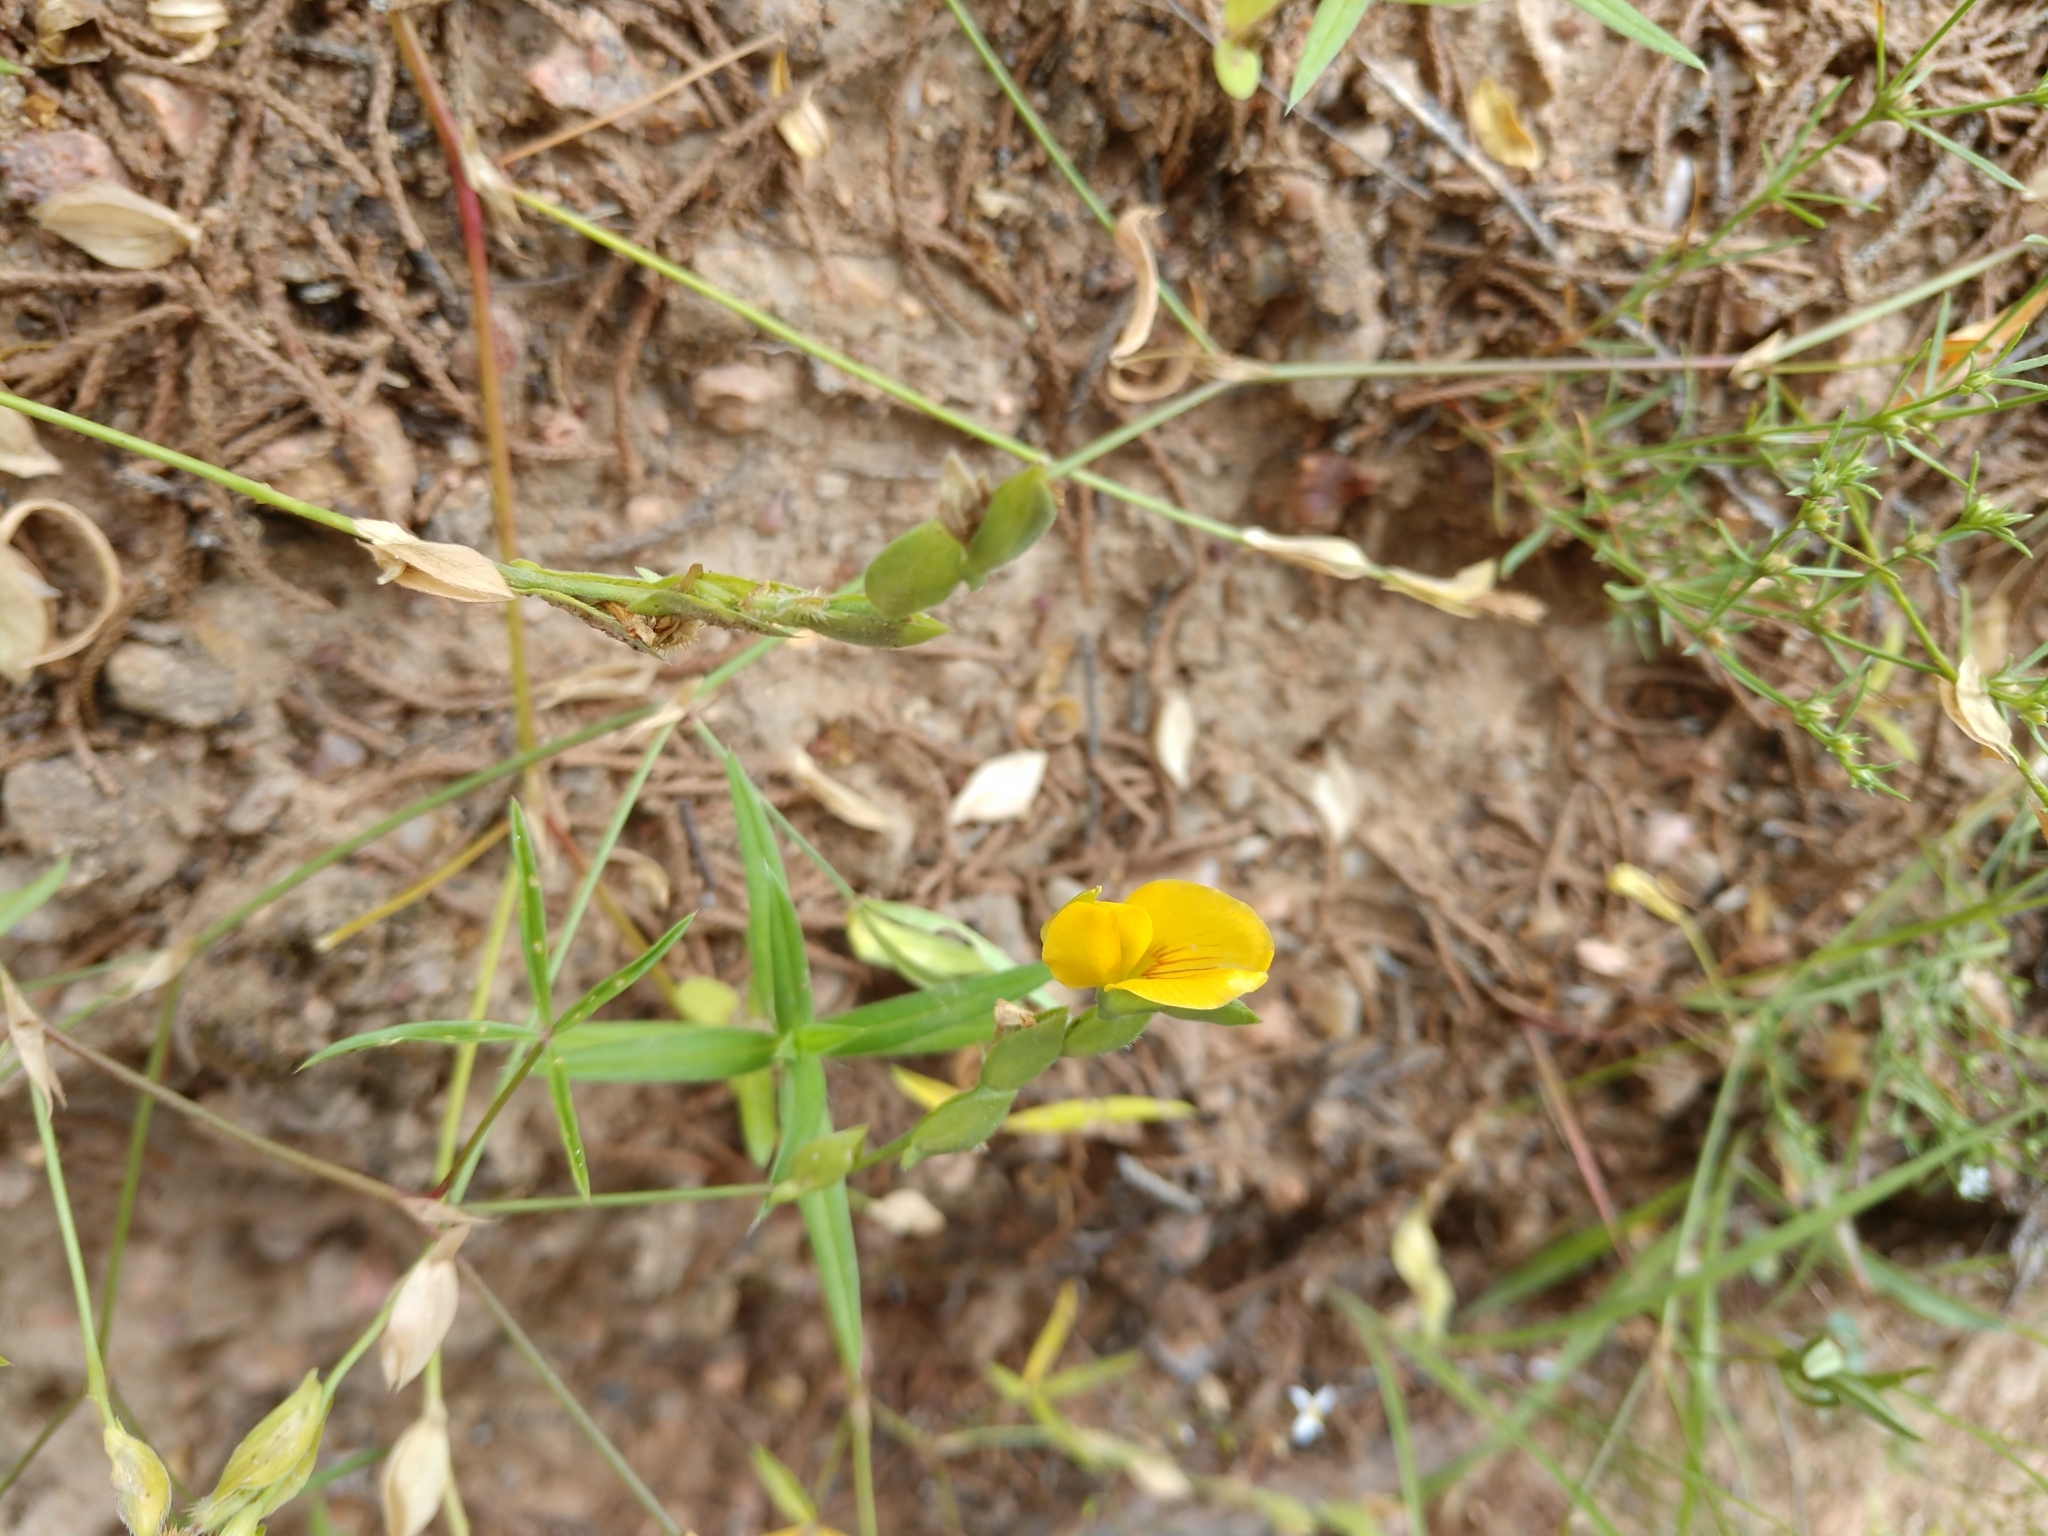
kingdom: Plantae
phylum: Tracheophyta
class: Magnoliopsida
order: Fabales
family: Fabaceae
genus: Zornia
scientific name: Zornia bracteata
